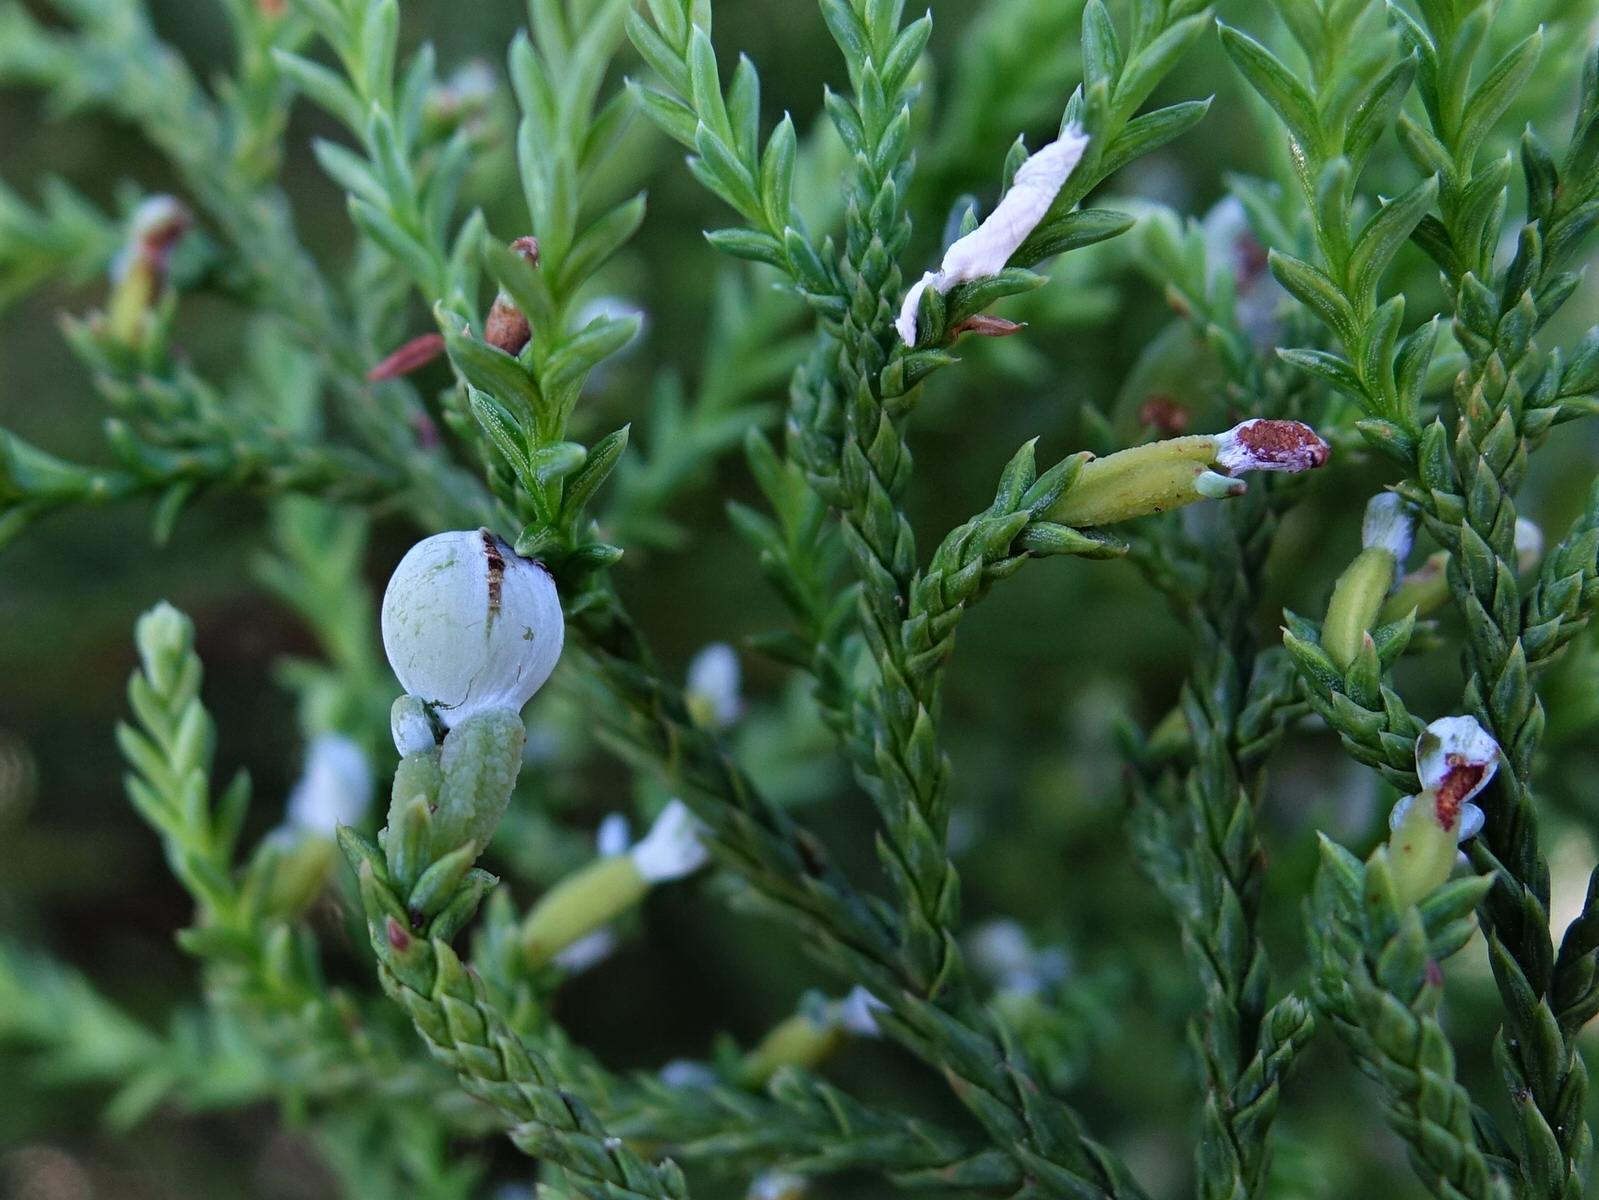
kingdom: Plantae
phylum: Tracheophyta
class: Pinopsida
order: Pinales
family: Podocarpaceae
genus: Dacrycarpus
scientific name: Dacrycarpus dacrydioides
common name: White pine
